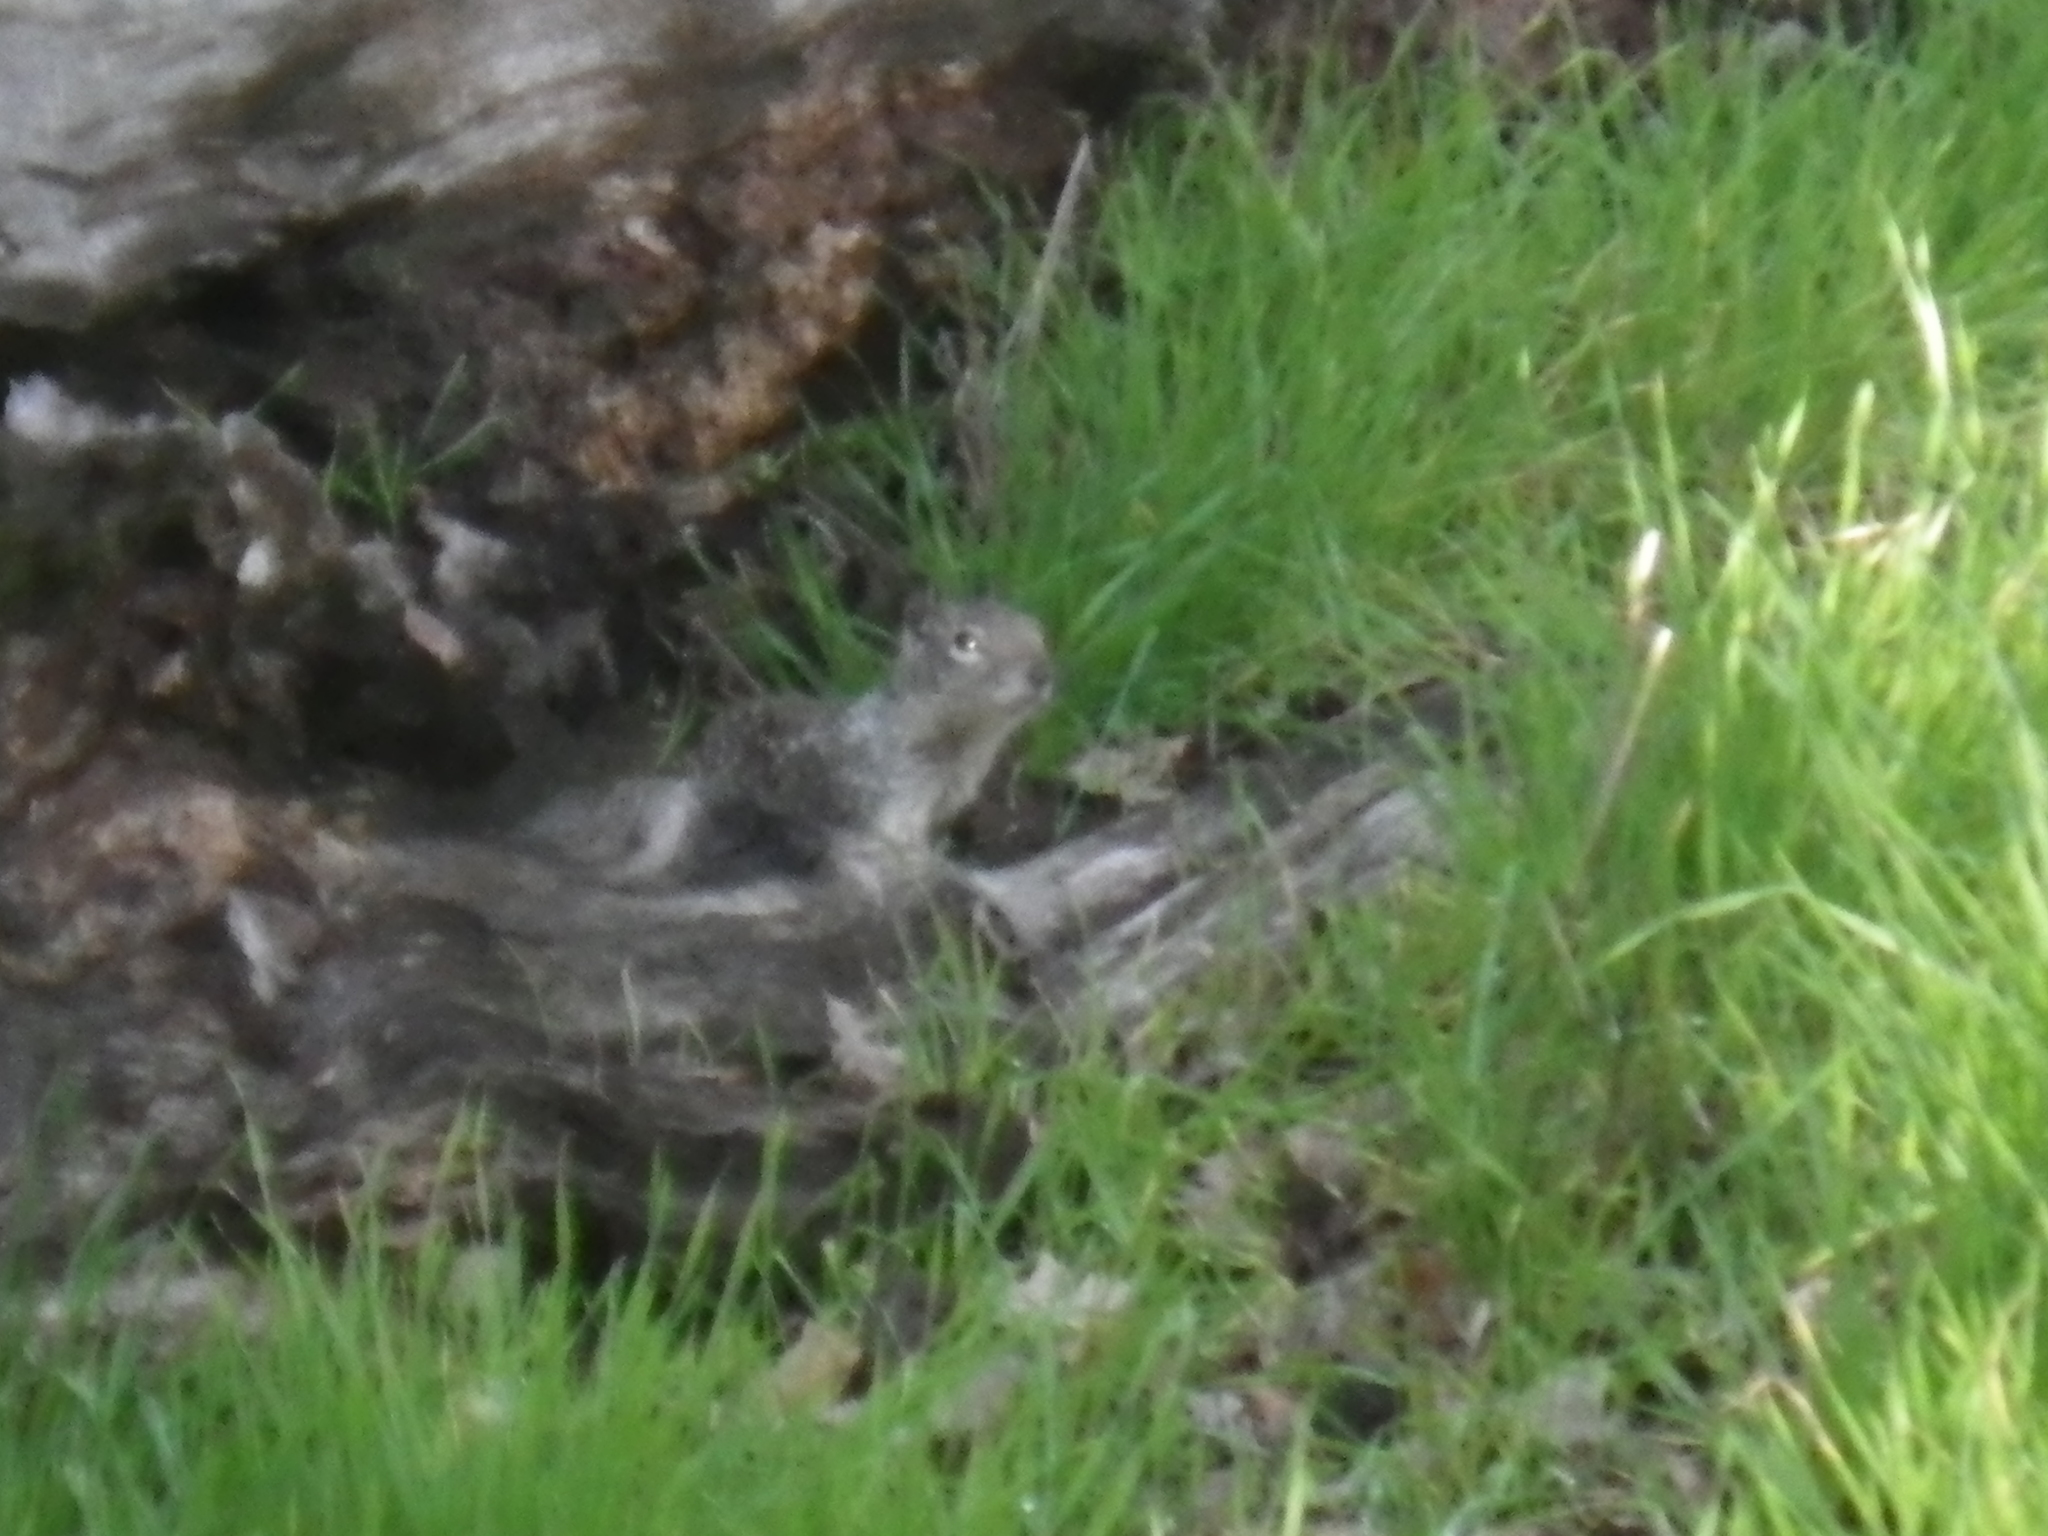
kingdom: Animalia
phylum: Chordata
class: Mammalia
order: Rodentia
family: Sciuridae
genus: Otospermophilus
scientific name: Otospermophilus beecheyi
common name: California ground squirrel
